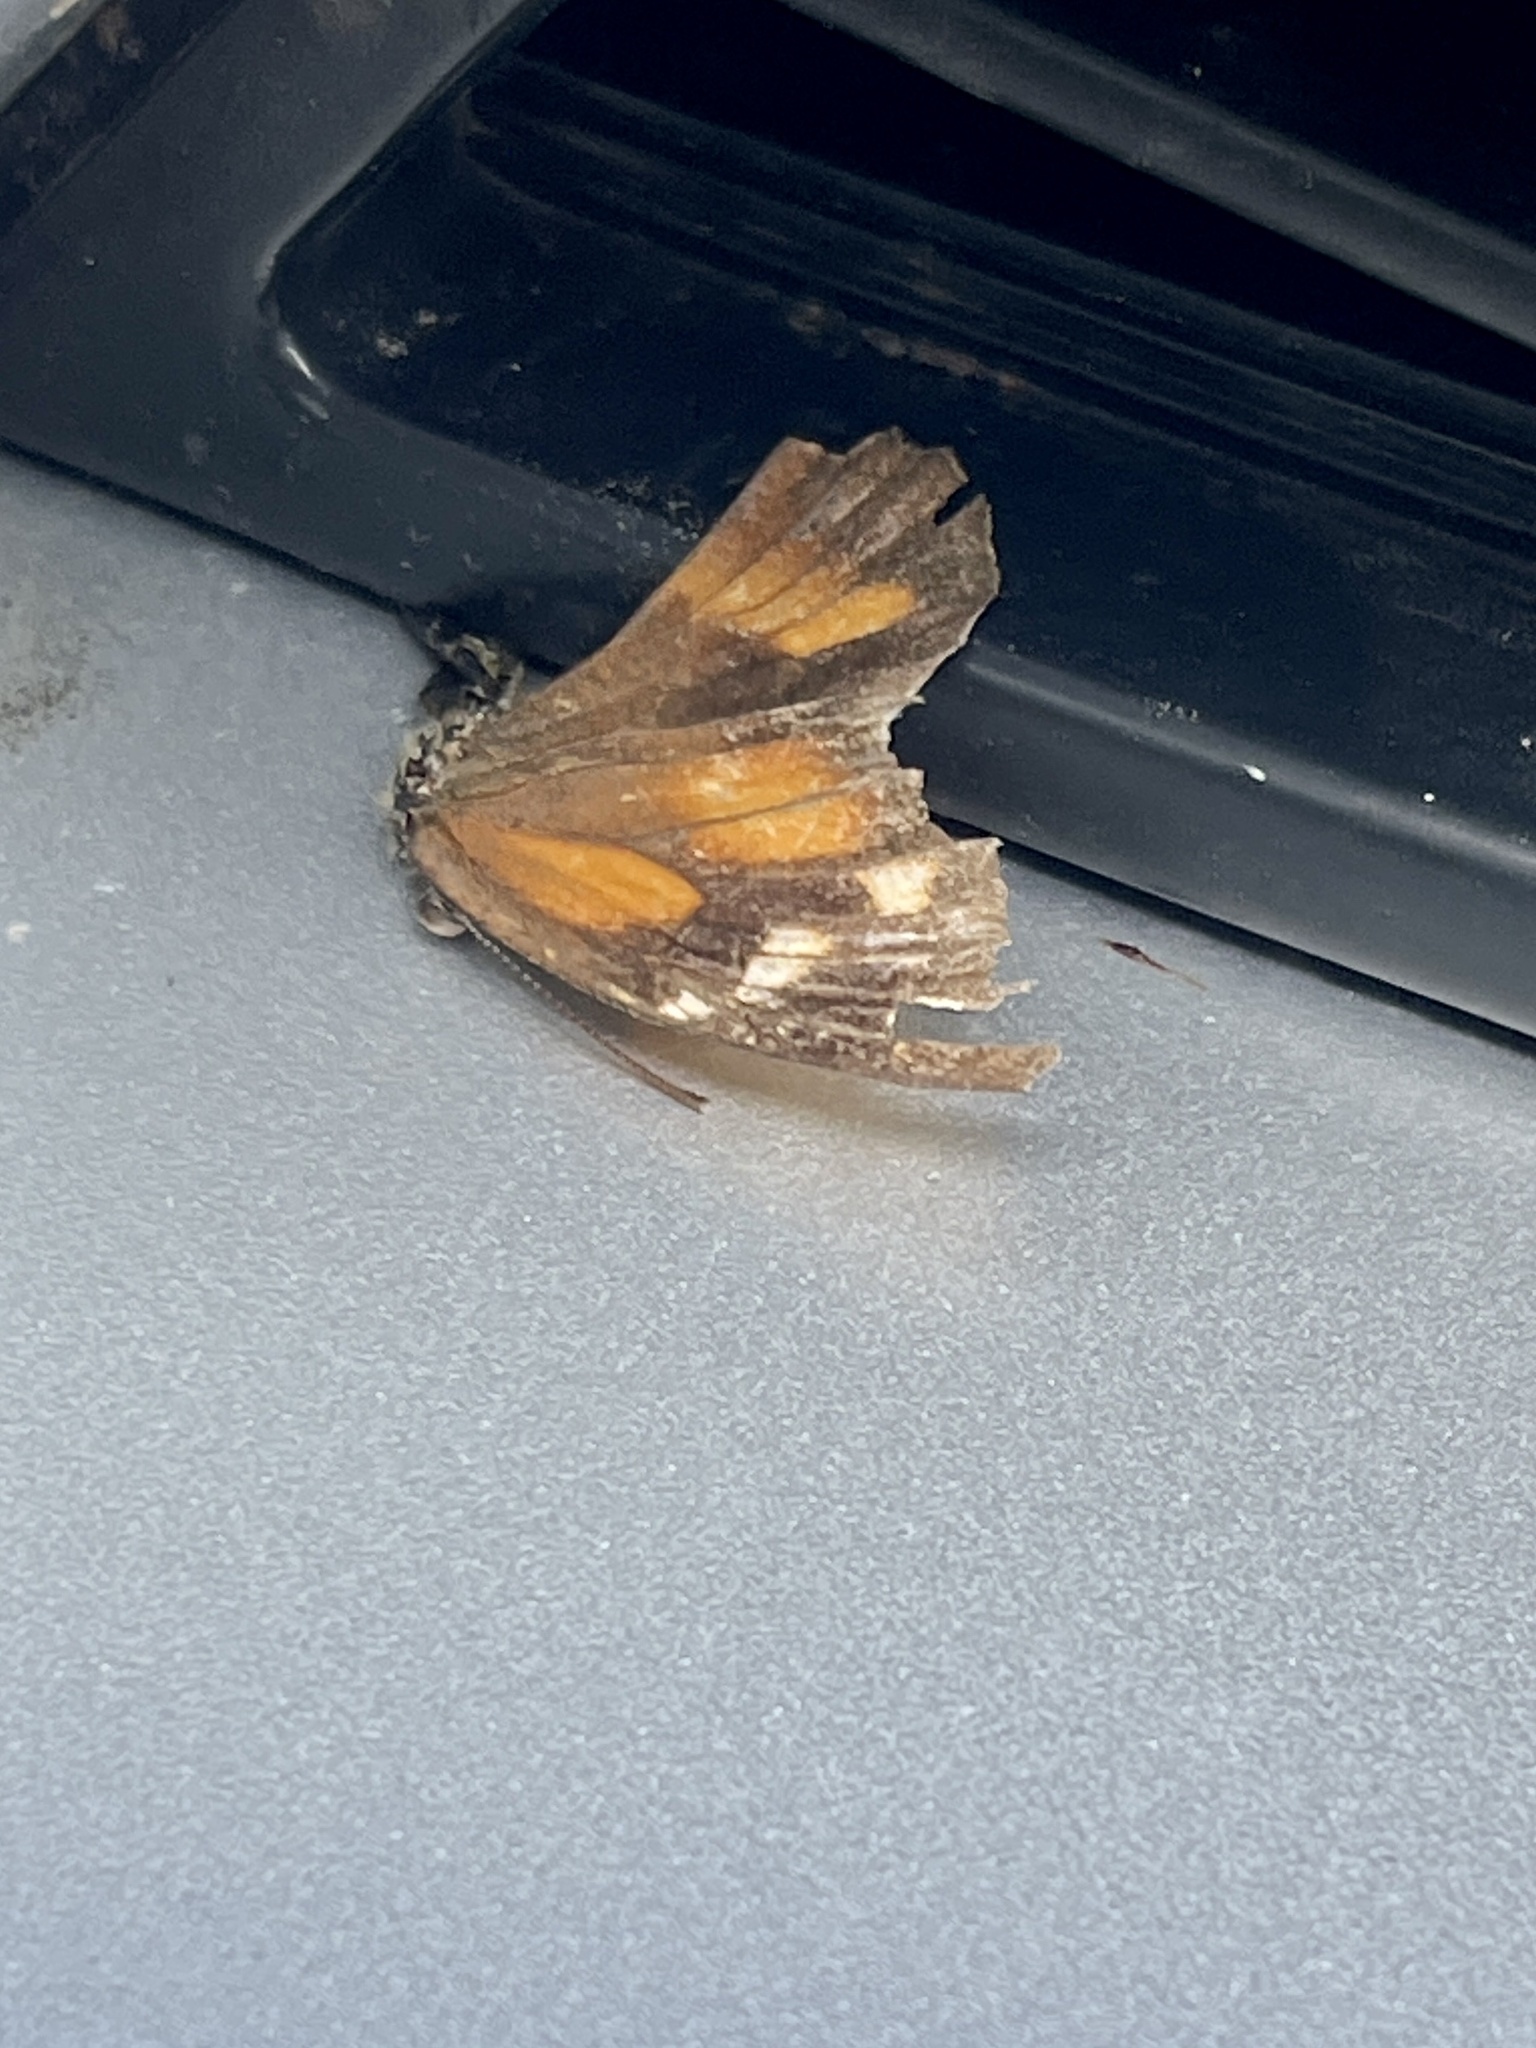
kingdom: Animalia
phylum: Arthropoda
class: Insecta
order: Lepidoptera
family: Nymphalidae
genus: Libytheana
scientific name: Libytheana carinenta
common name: American snout
